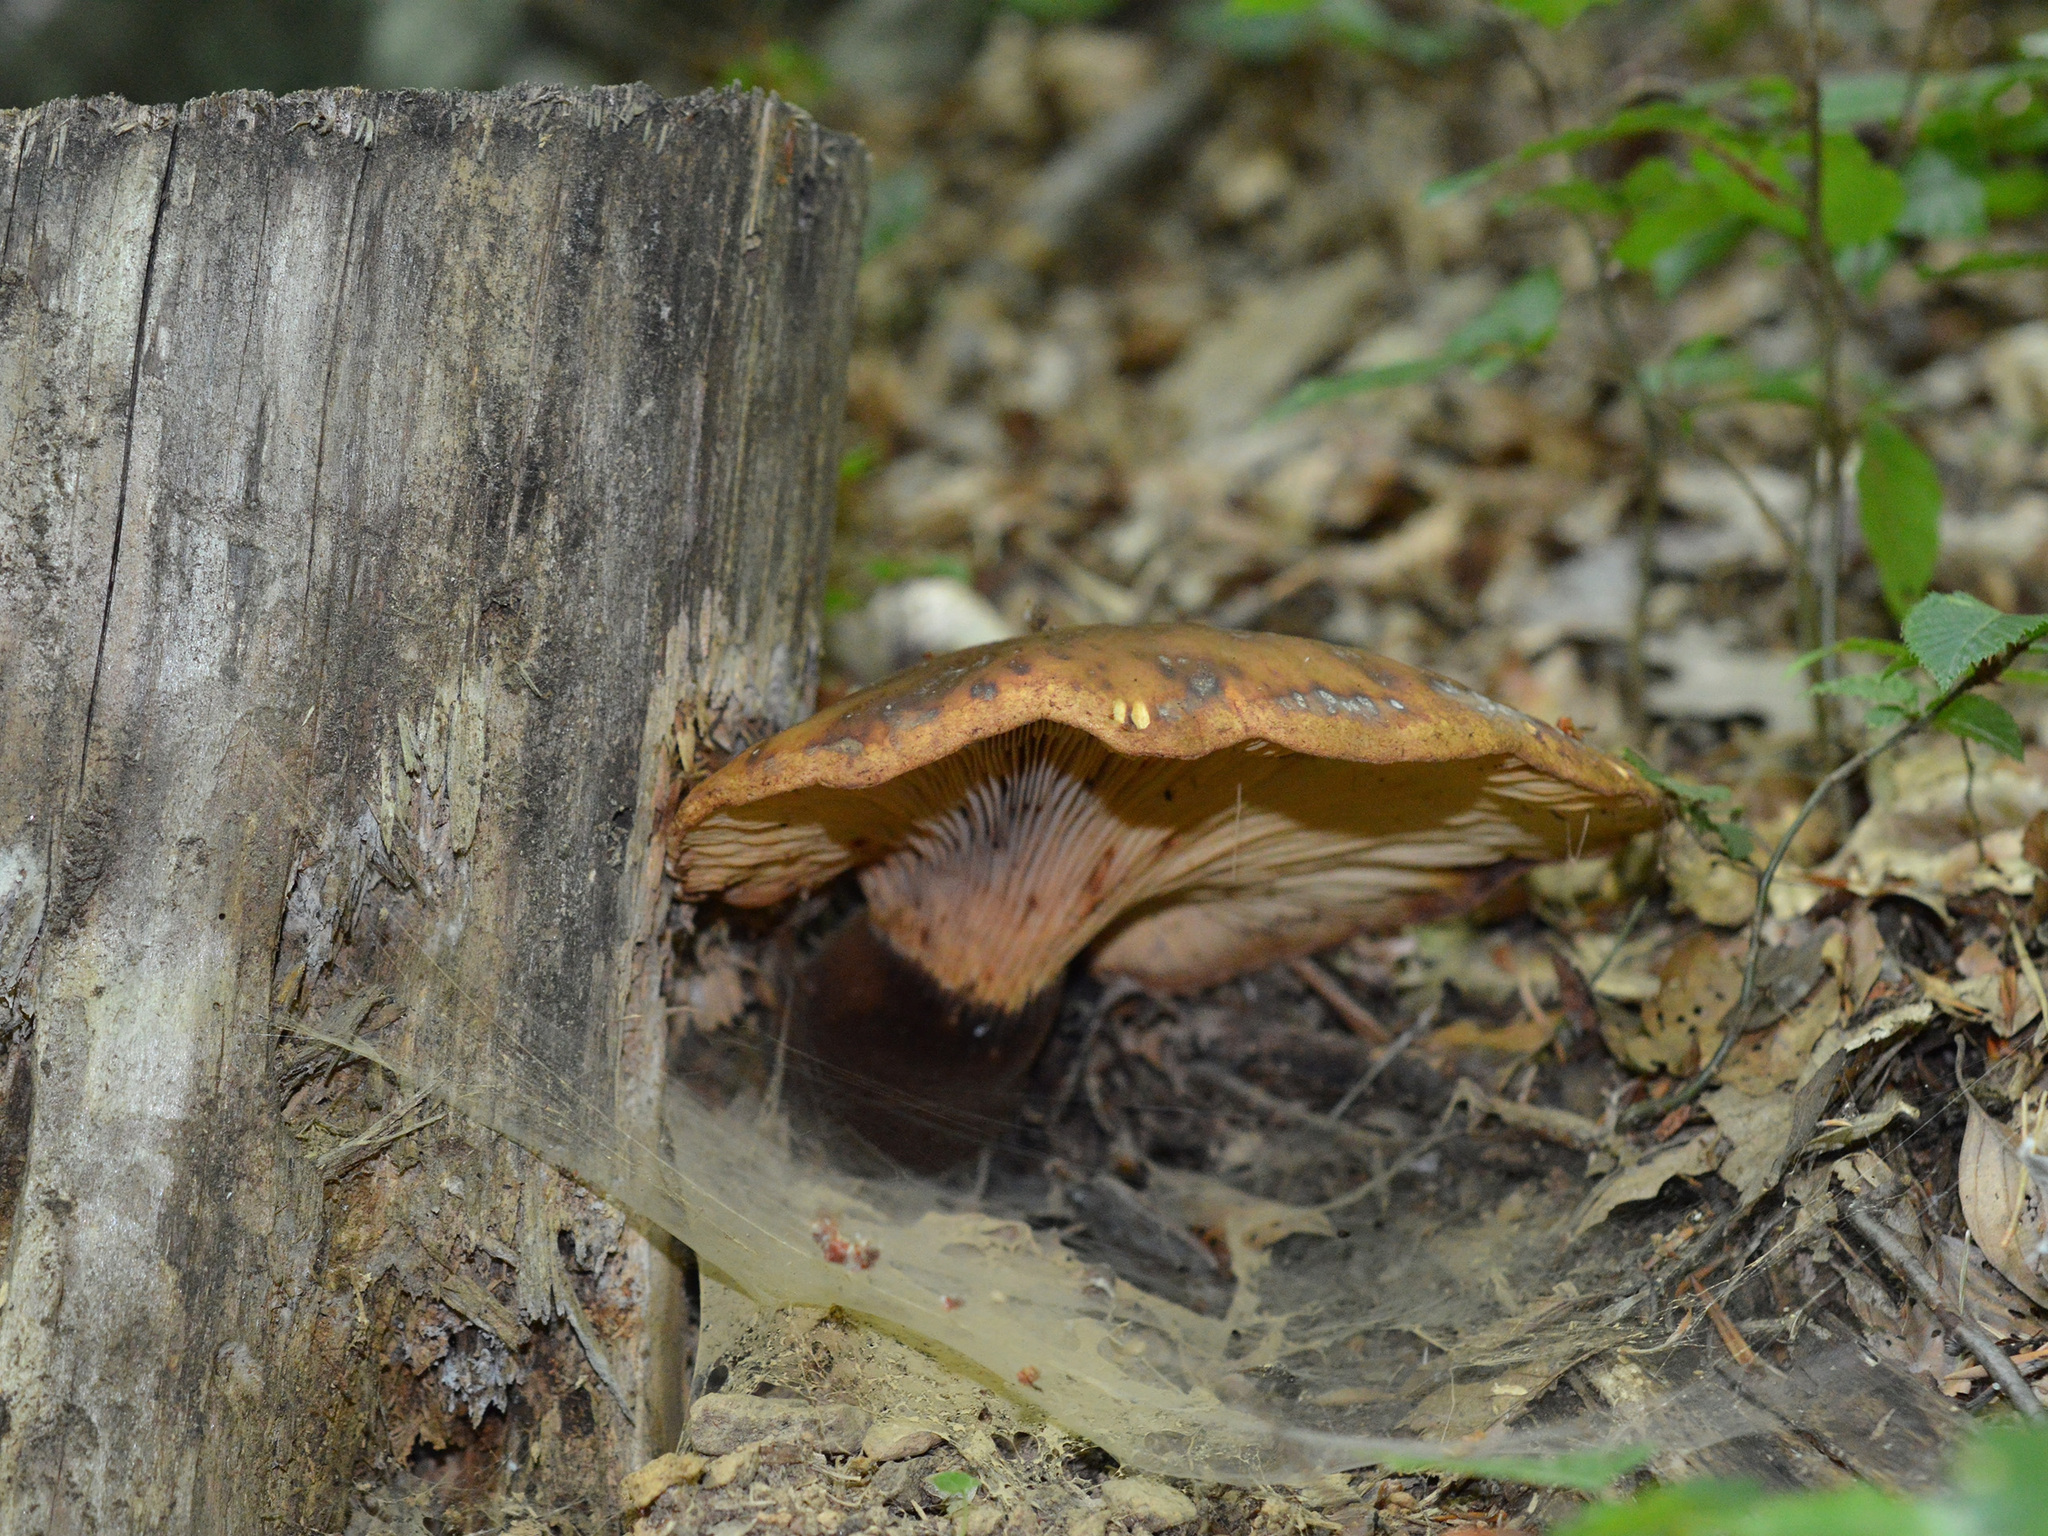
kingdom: Fungi
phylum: Basidiomycota
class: Agaricomycetes
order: Boletales
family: Tapinellaceae
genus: Tapinella
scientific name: Tapinella atrotomentosa
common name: Velvet rollrim
